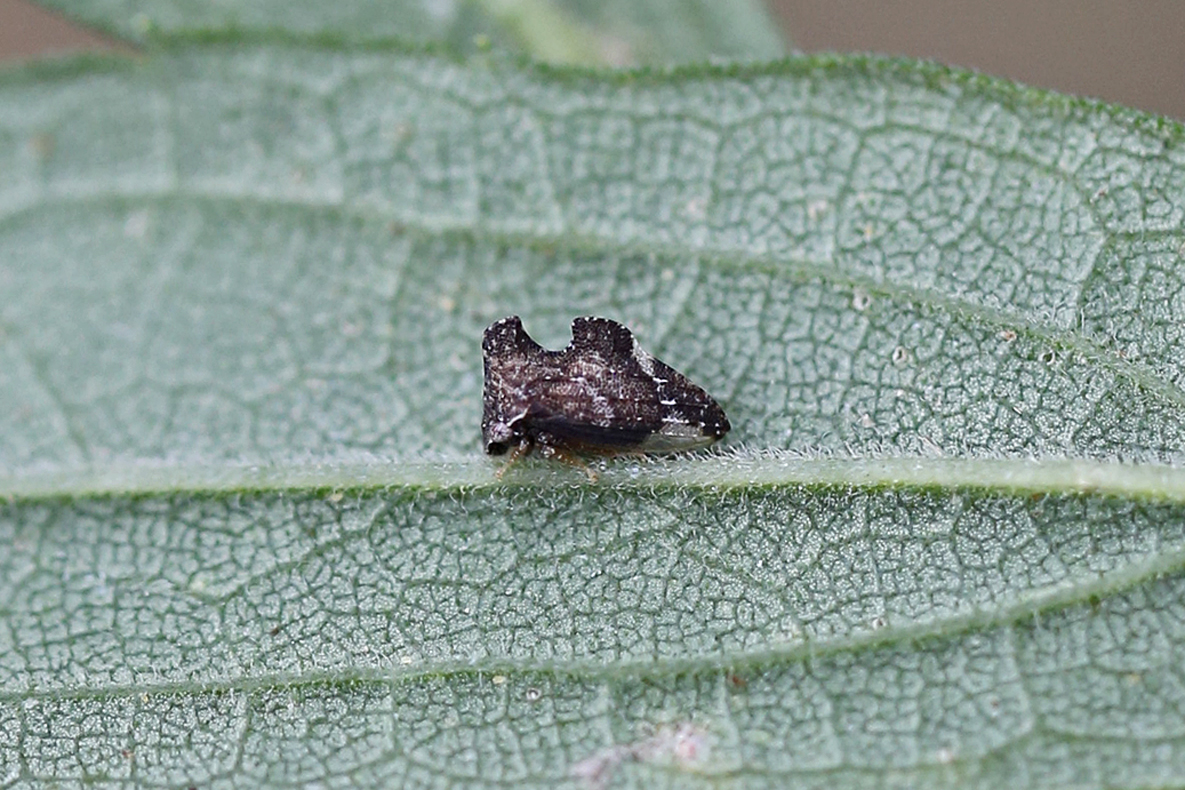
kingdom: Animalia
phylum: Arthropoda
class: Insecta
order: Hemiptera
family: Membracidae
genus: Entylia
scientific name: Entylia carinata
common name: Keeled treehopper
